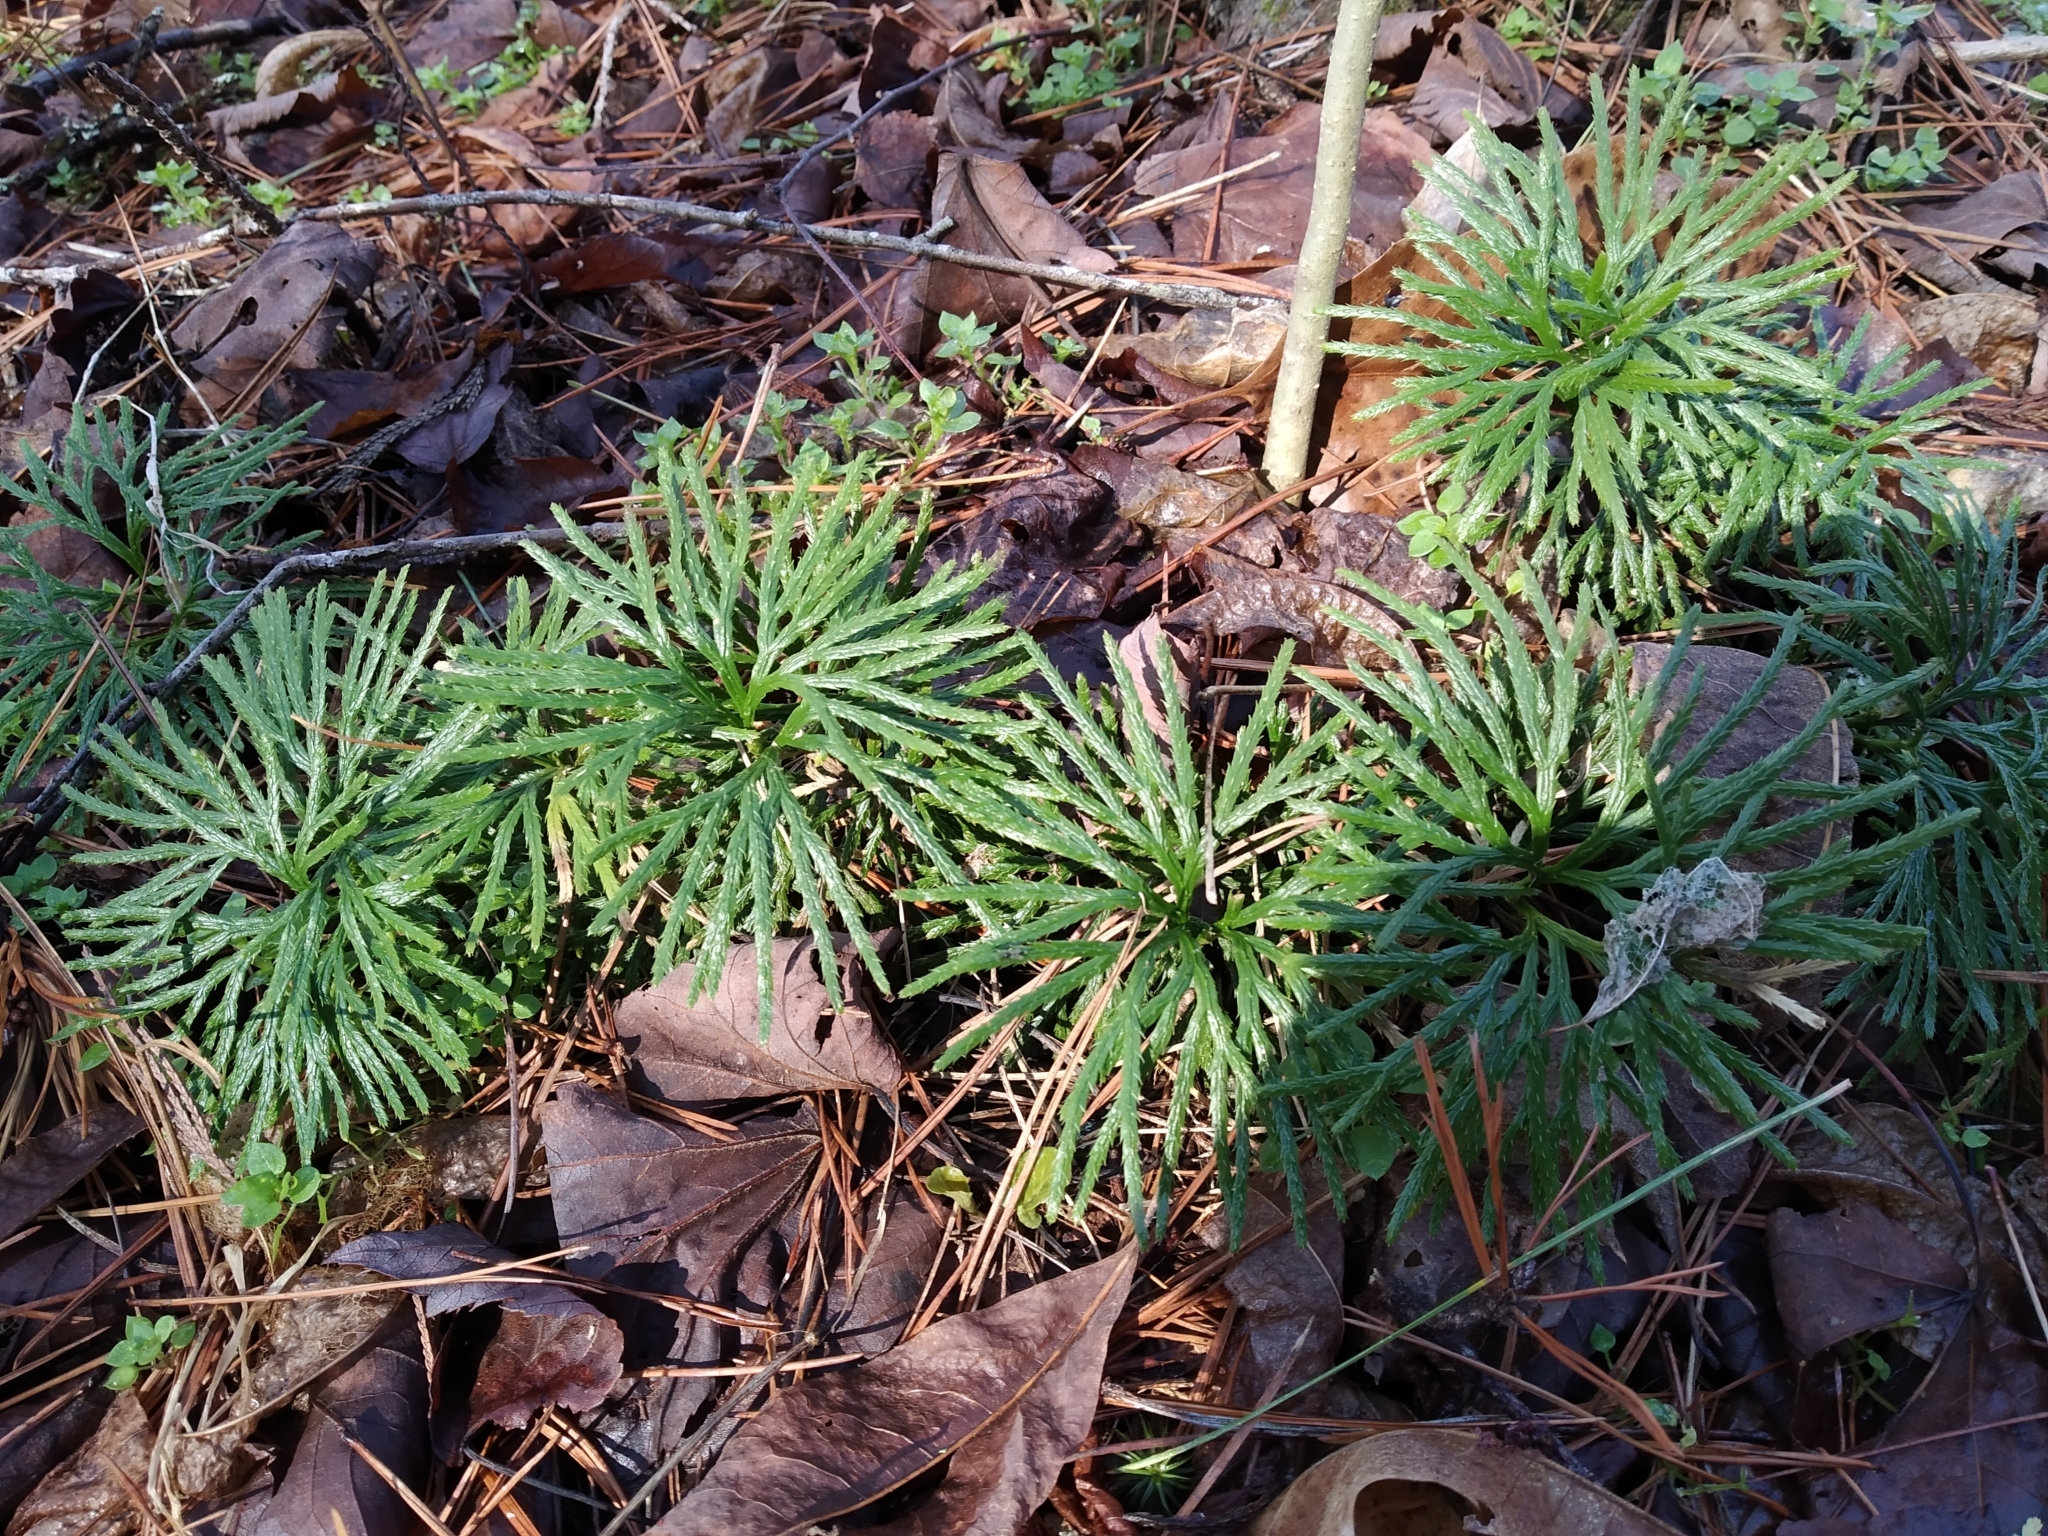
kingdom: Plantae
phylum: Tracheophyta
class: Lycopodiopsida
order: Lycopodiales
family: Lycopodiaceae
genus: Diphasiastrum
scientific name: Diphasiastrum digitatum
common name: Southern running-pine
